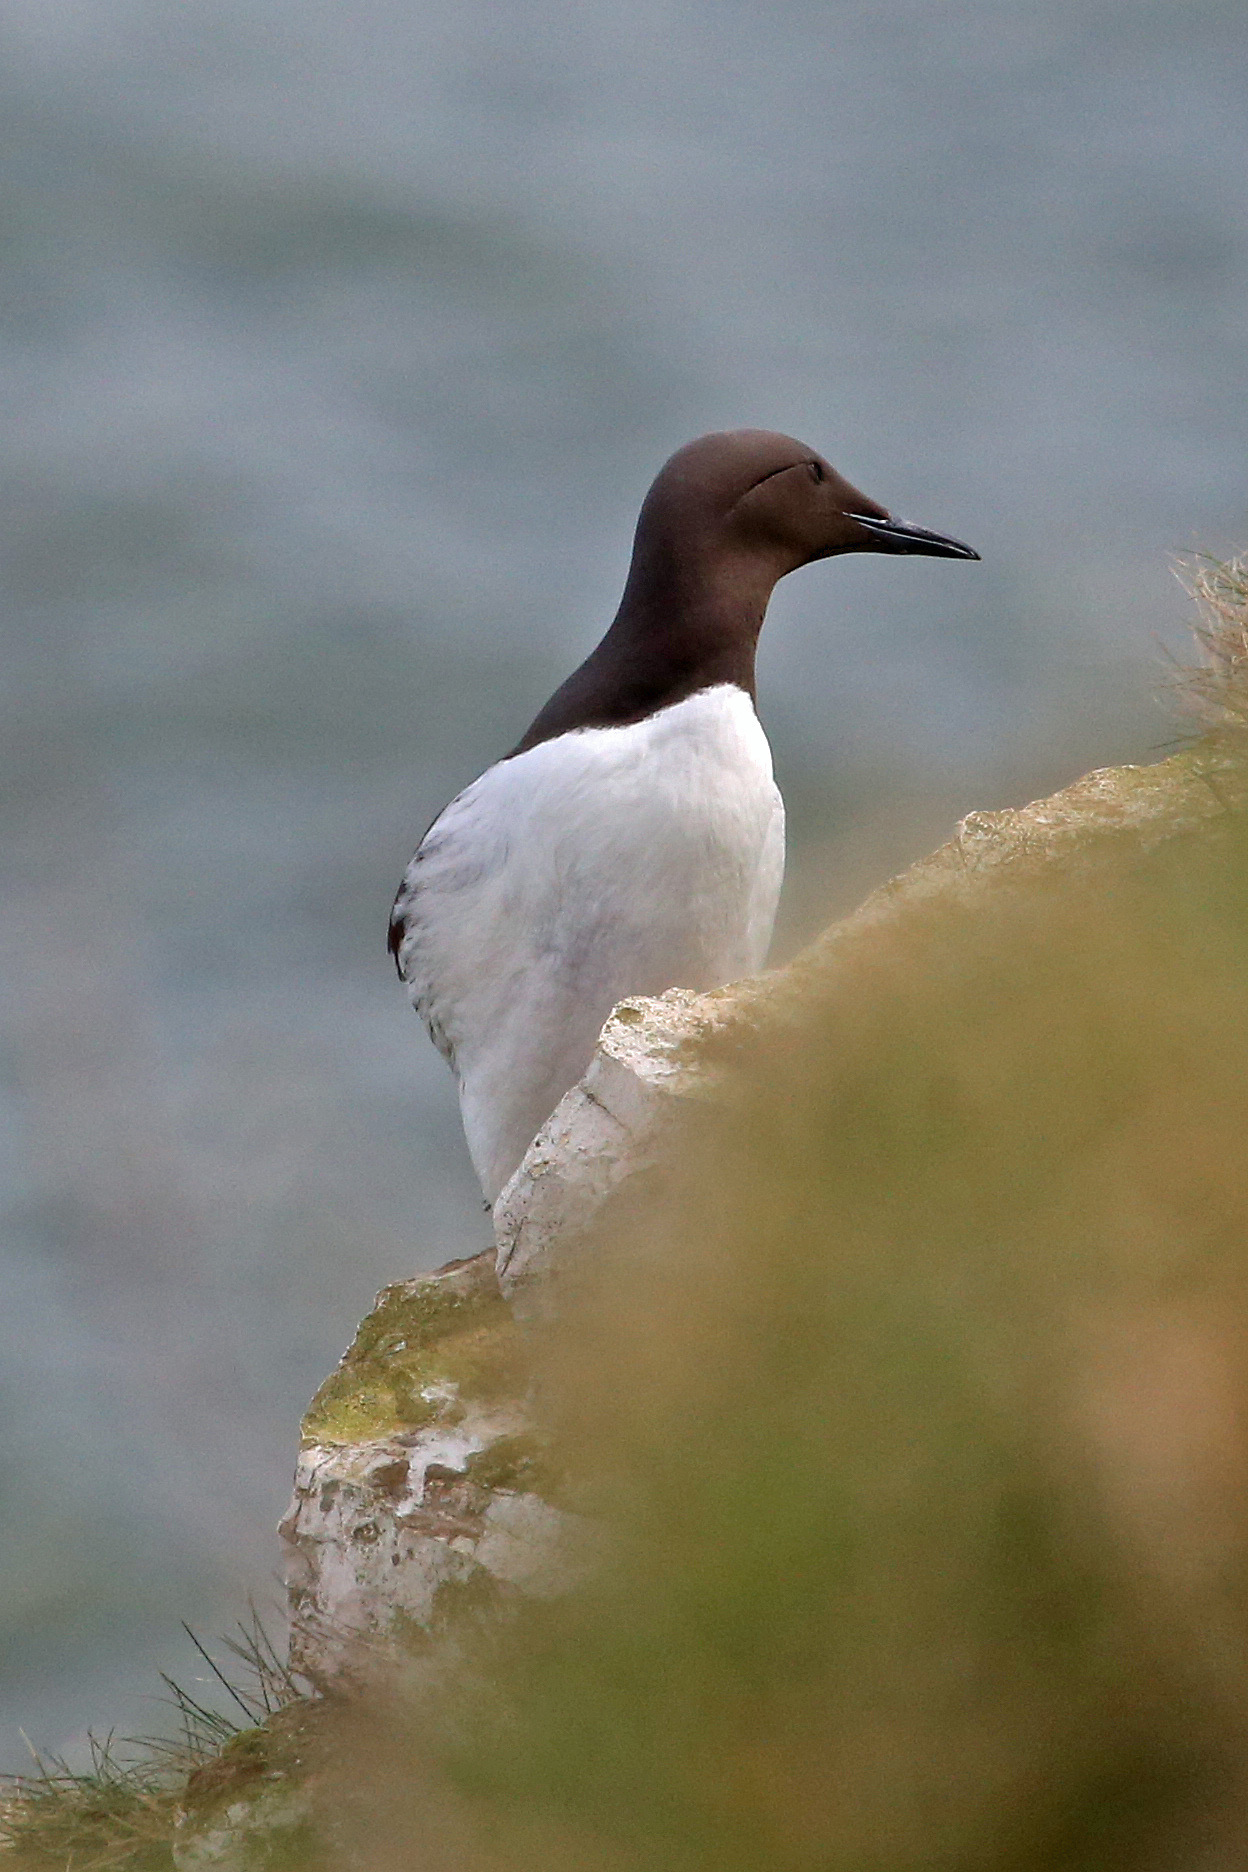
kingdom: Animalia
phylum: Chordata
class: Aves
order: Charadriiformes
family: Alcidae
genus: Uria
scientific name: Uria aalge
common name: Common murre
